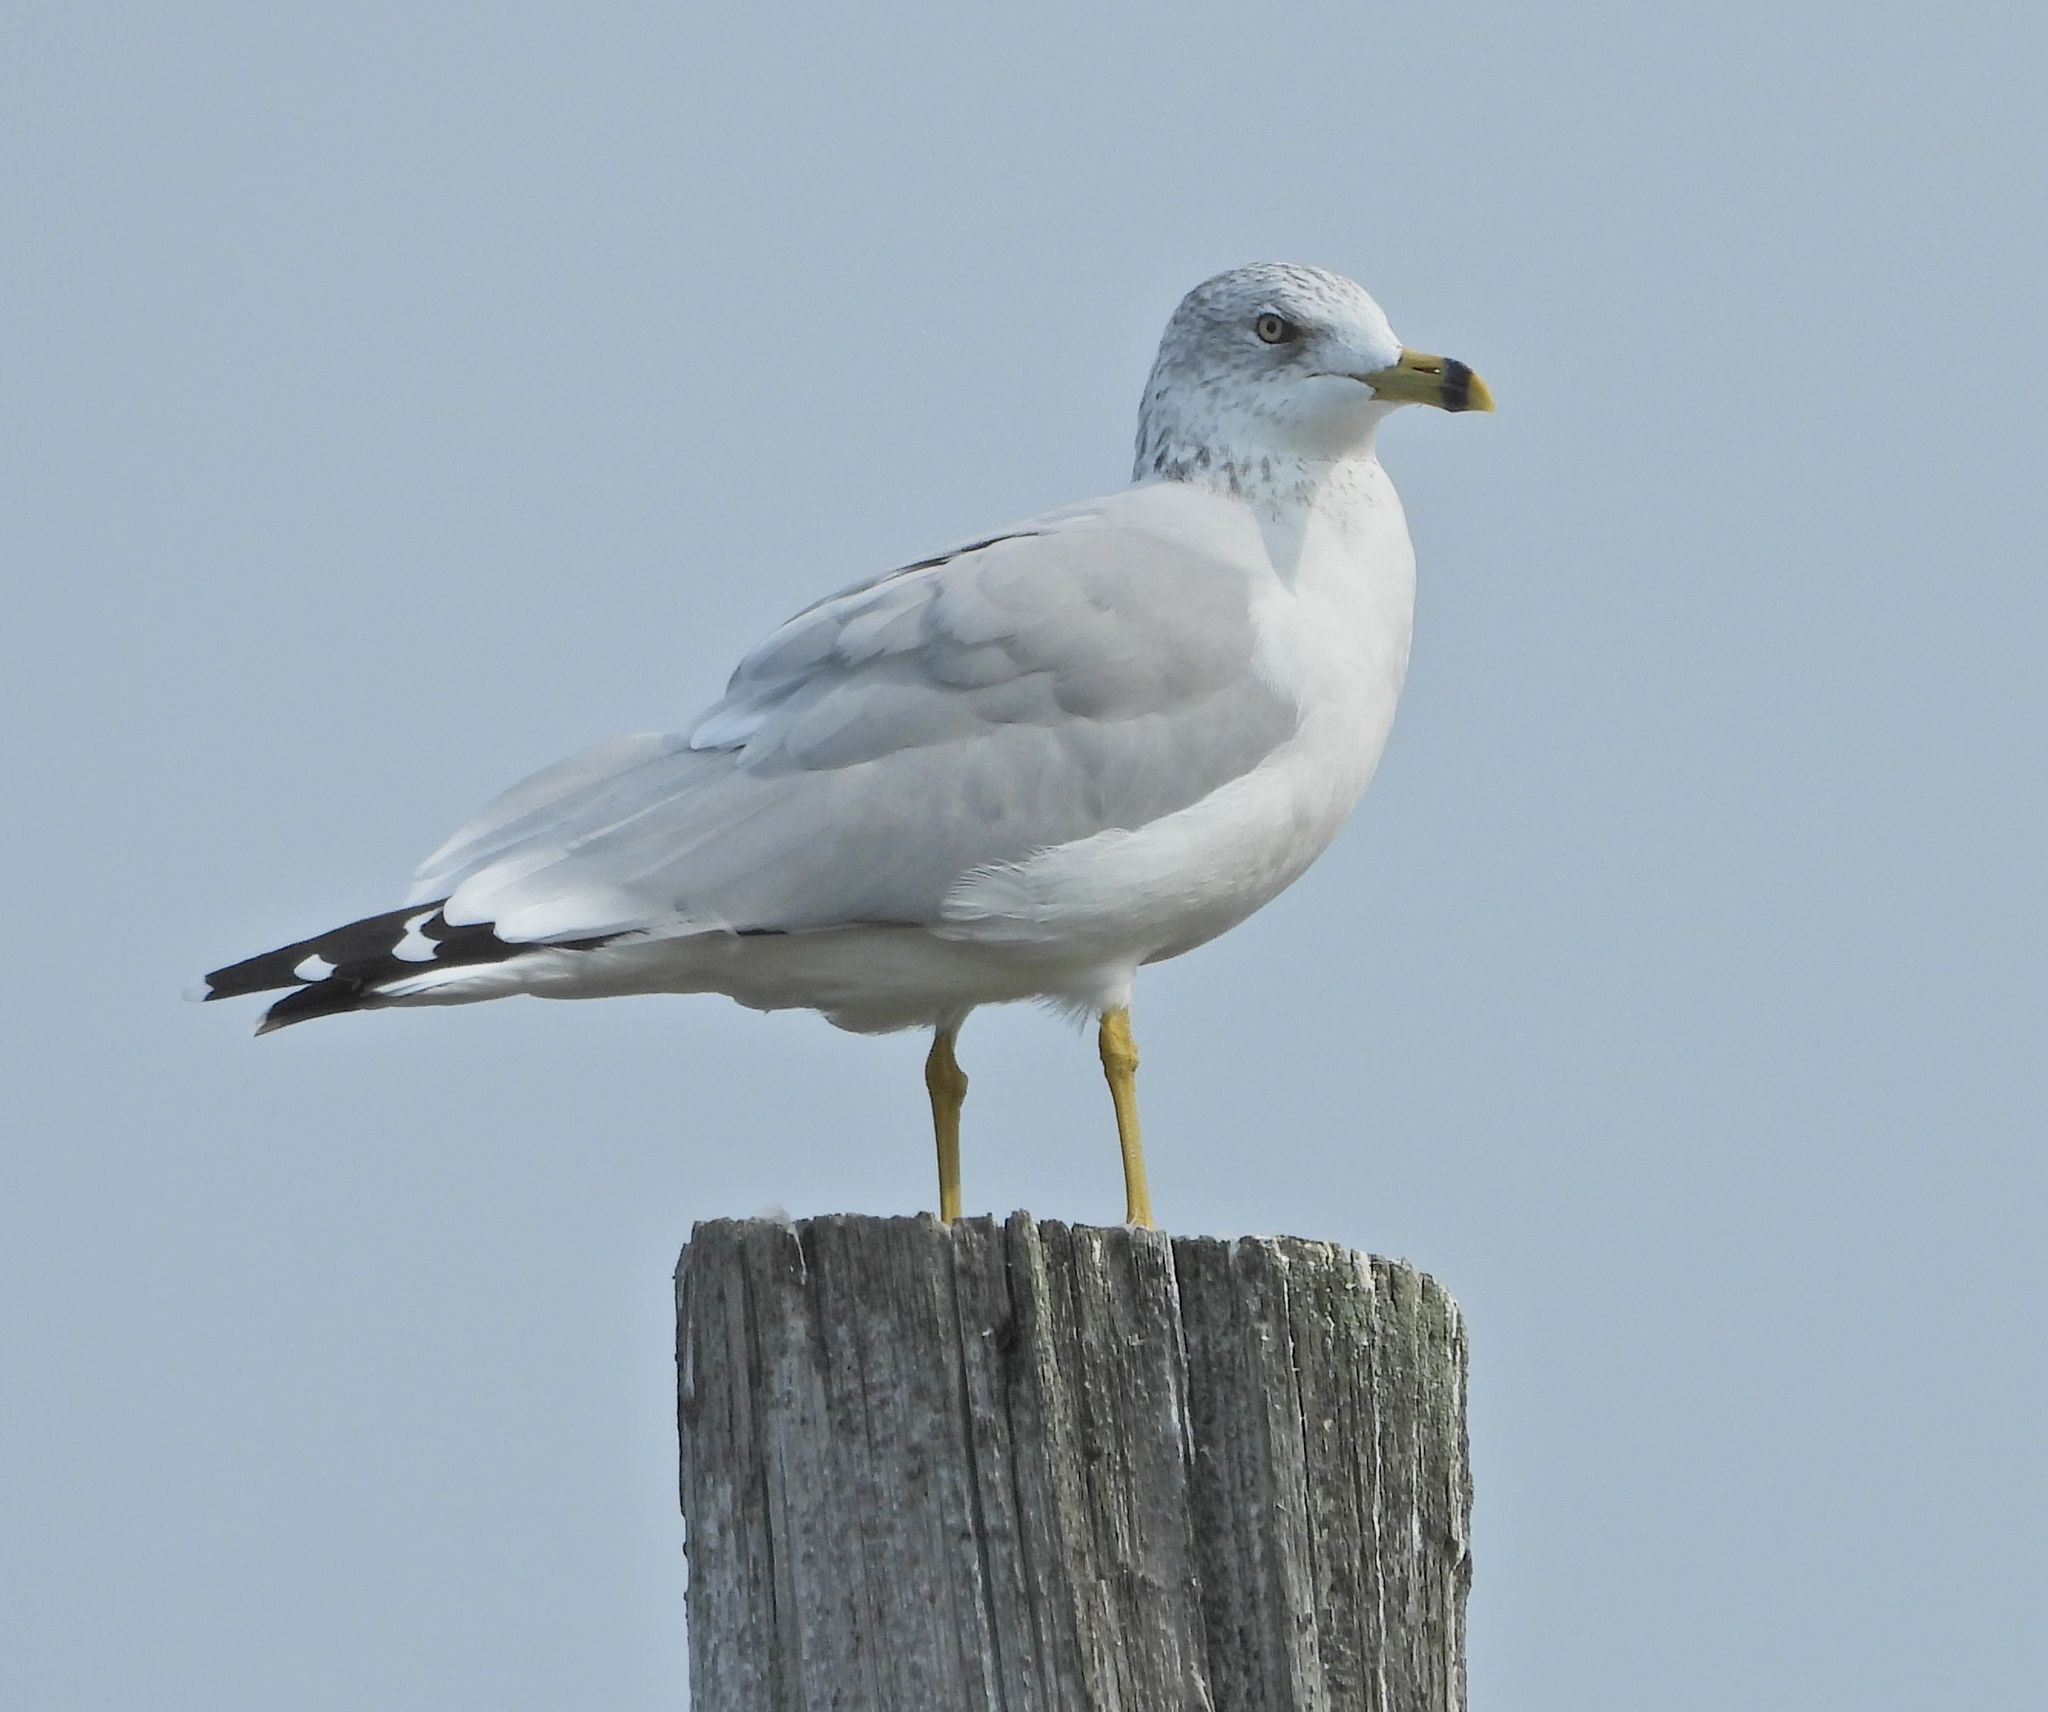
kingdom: Animalia
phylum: Chordata
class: Aves
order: Charadriiformes
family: Laridae
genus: Larus
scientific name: Larus delawarensis
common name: Ring-billed gull
